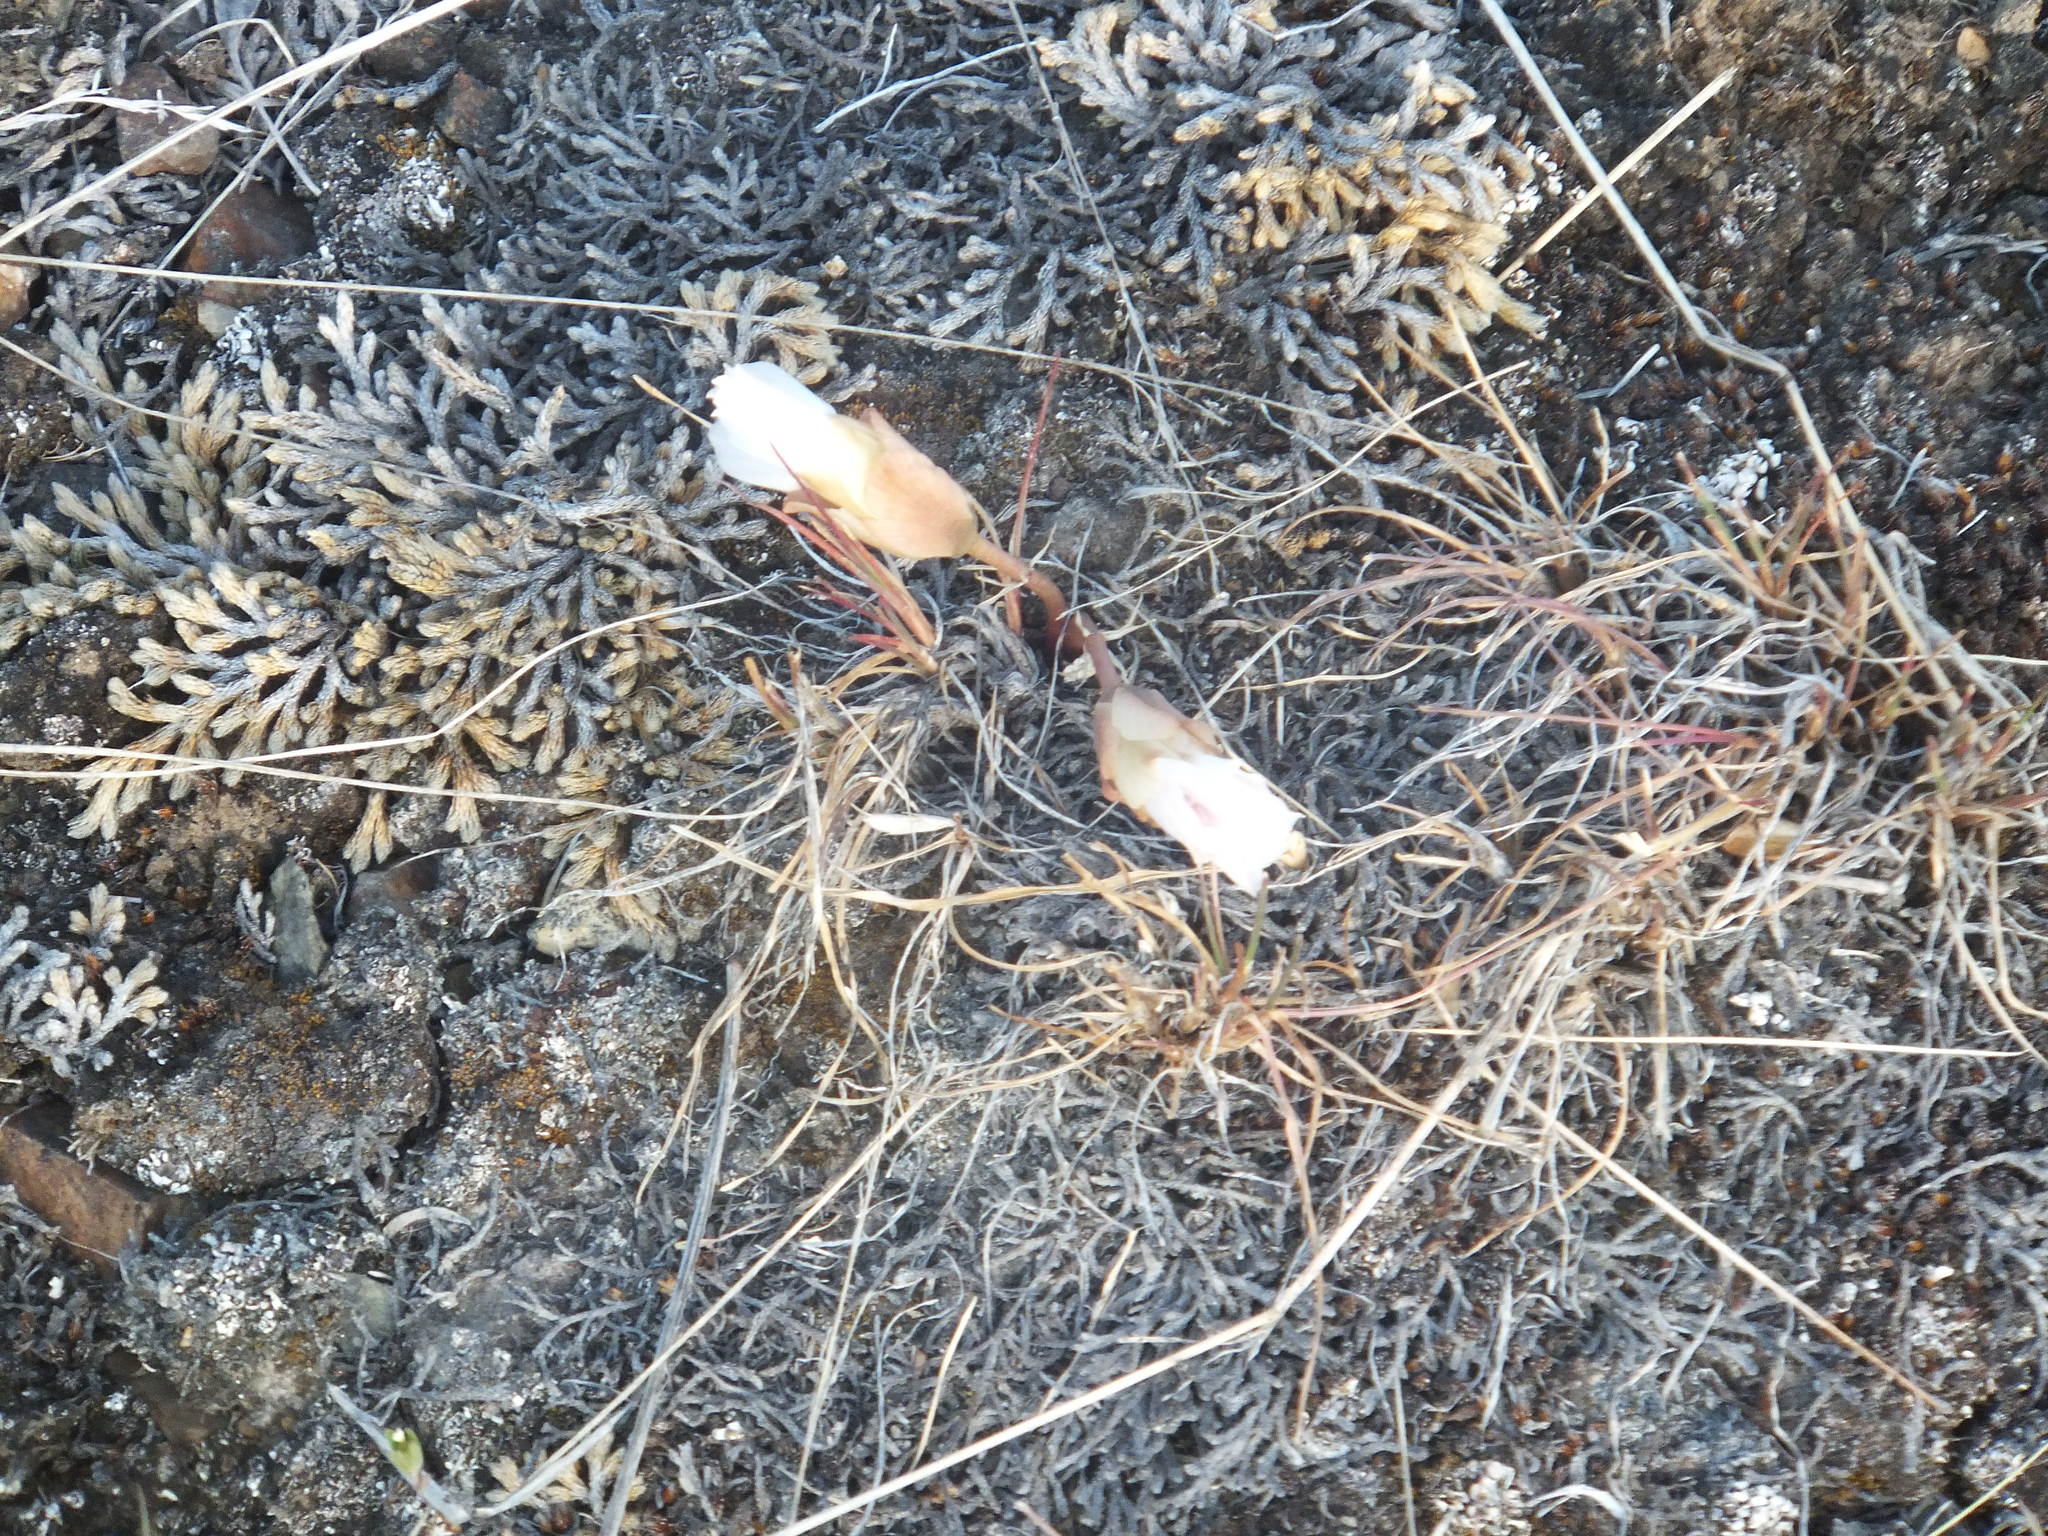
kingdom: Plantae
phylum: Tracheophyta
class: Magnoliopsida
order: Caryophyllales
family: Montiaceae
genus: Lewisia
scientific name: Lewisia rediviva
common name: Bitter-root
